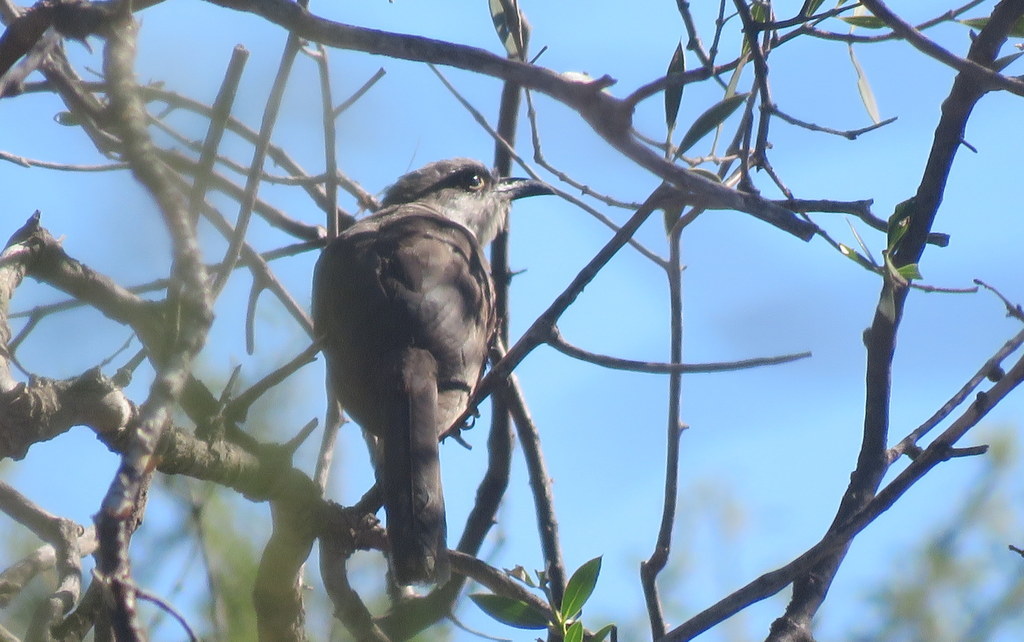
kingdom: Animalia
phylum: Chordata
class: Aves
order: Cuculiformes
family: Cuculidae
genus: Coccyzus
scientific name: Coccyzus melacoryphus
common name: Dark-billed cuckoo
